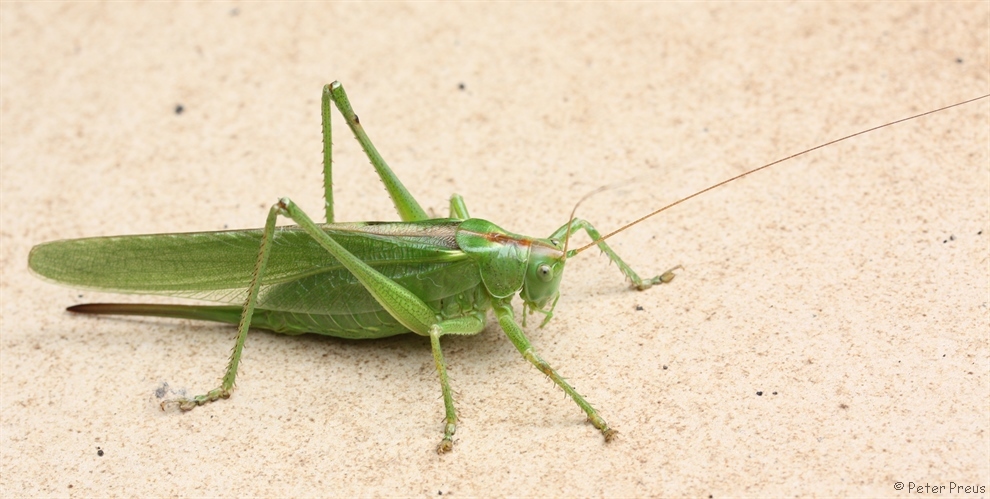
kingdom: Animalia
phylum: Arthropoda
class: Insecta
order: Orthoptera
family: Tettigoniidae
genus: Tettigonia
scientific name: Tettigonia viridissima
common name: Great green bush-cricket
